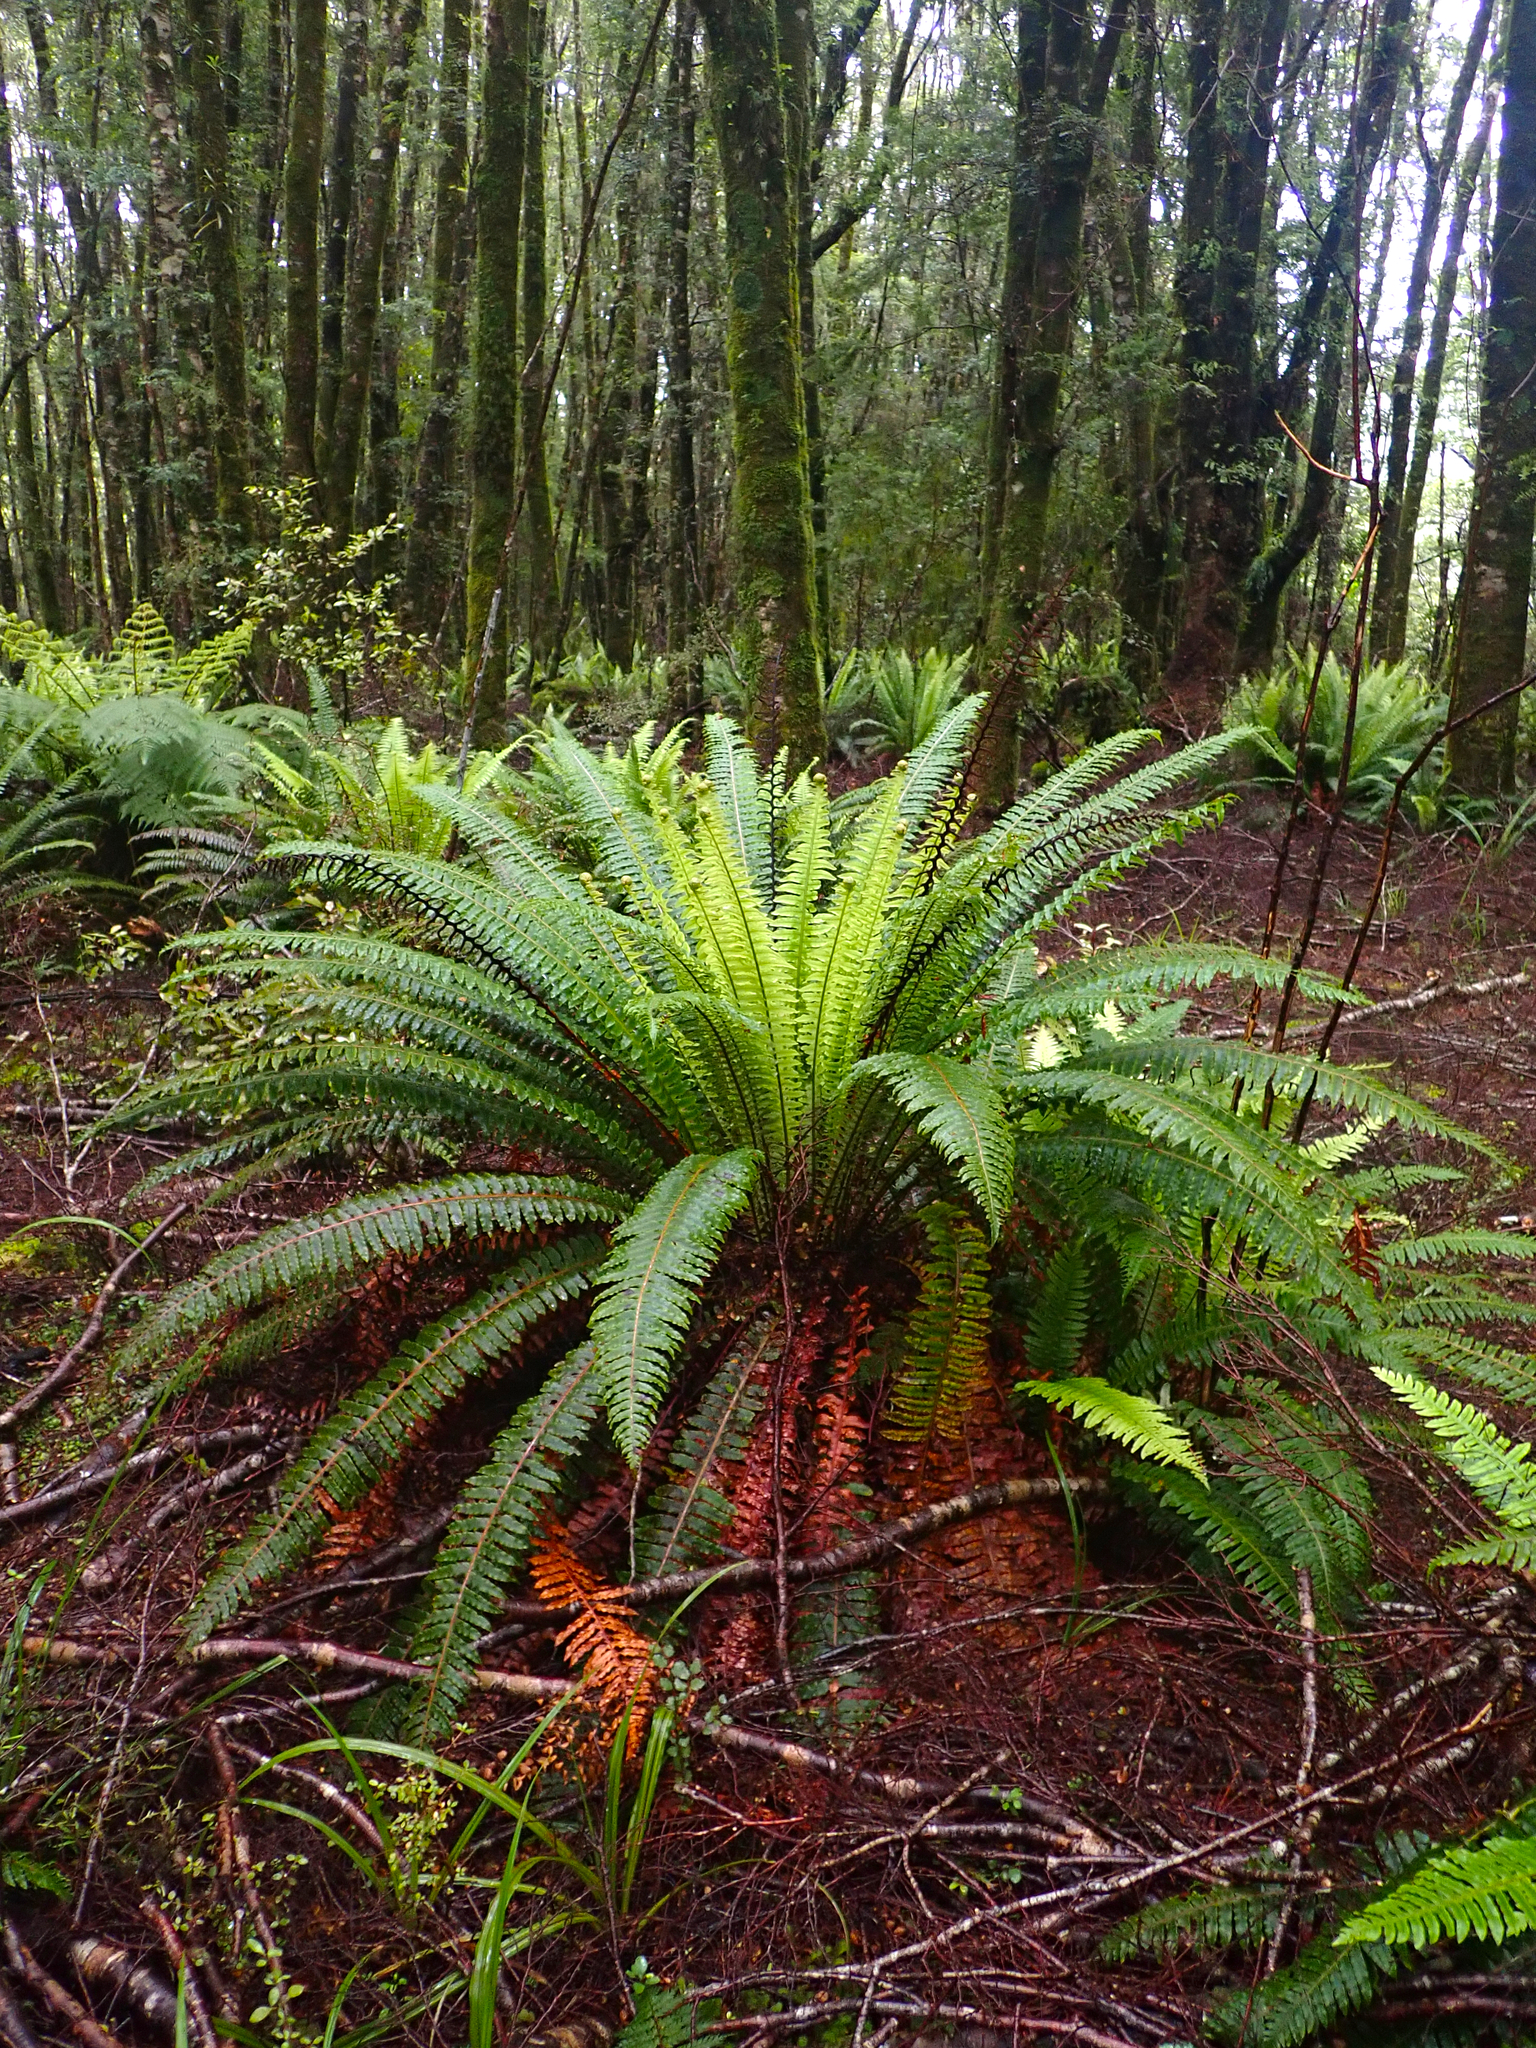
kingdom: Plantae
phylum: Tracheophyta
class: Polypodiopsida
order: Polypodiales
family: Blechnaceae
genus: Lomaria
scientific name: Lomaria discolor
